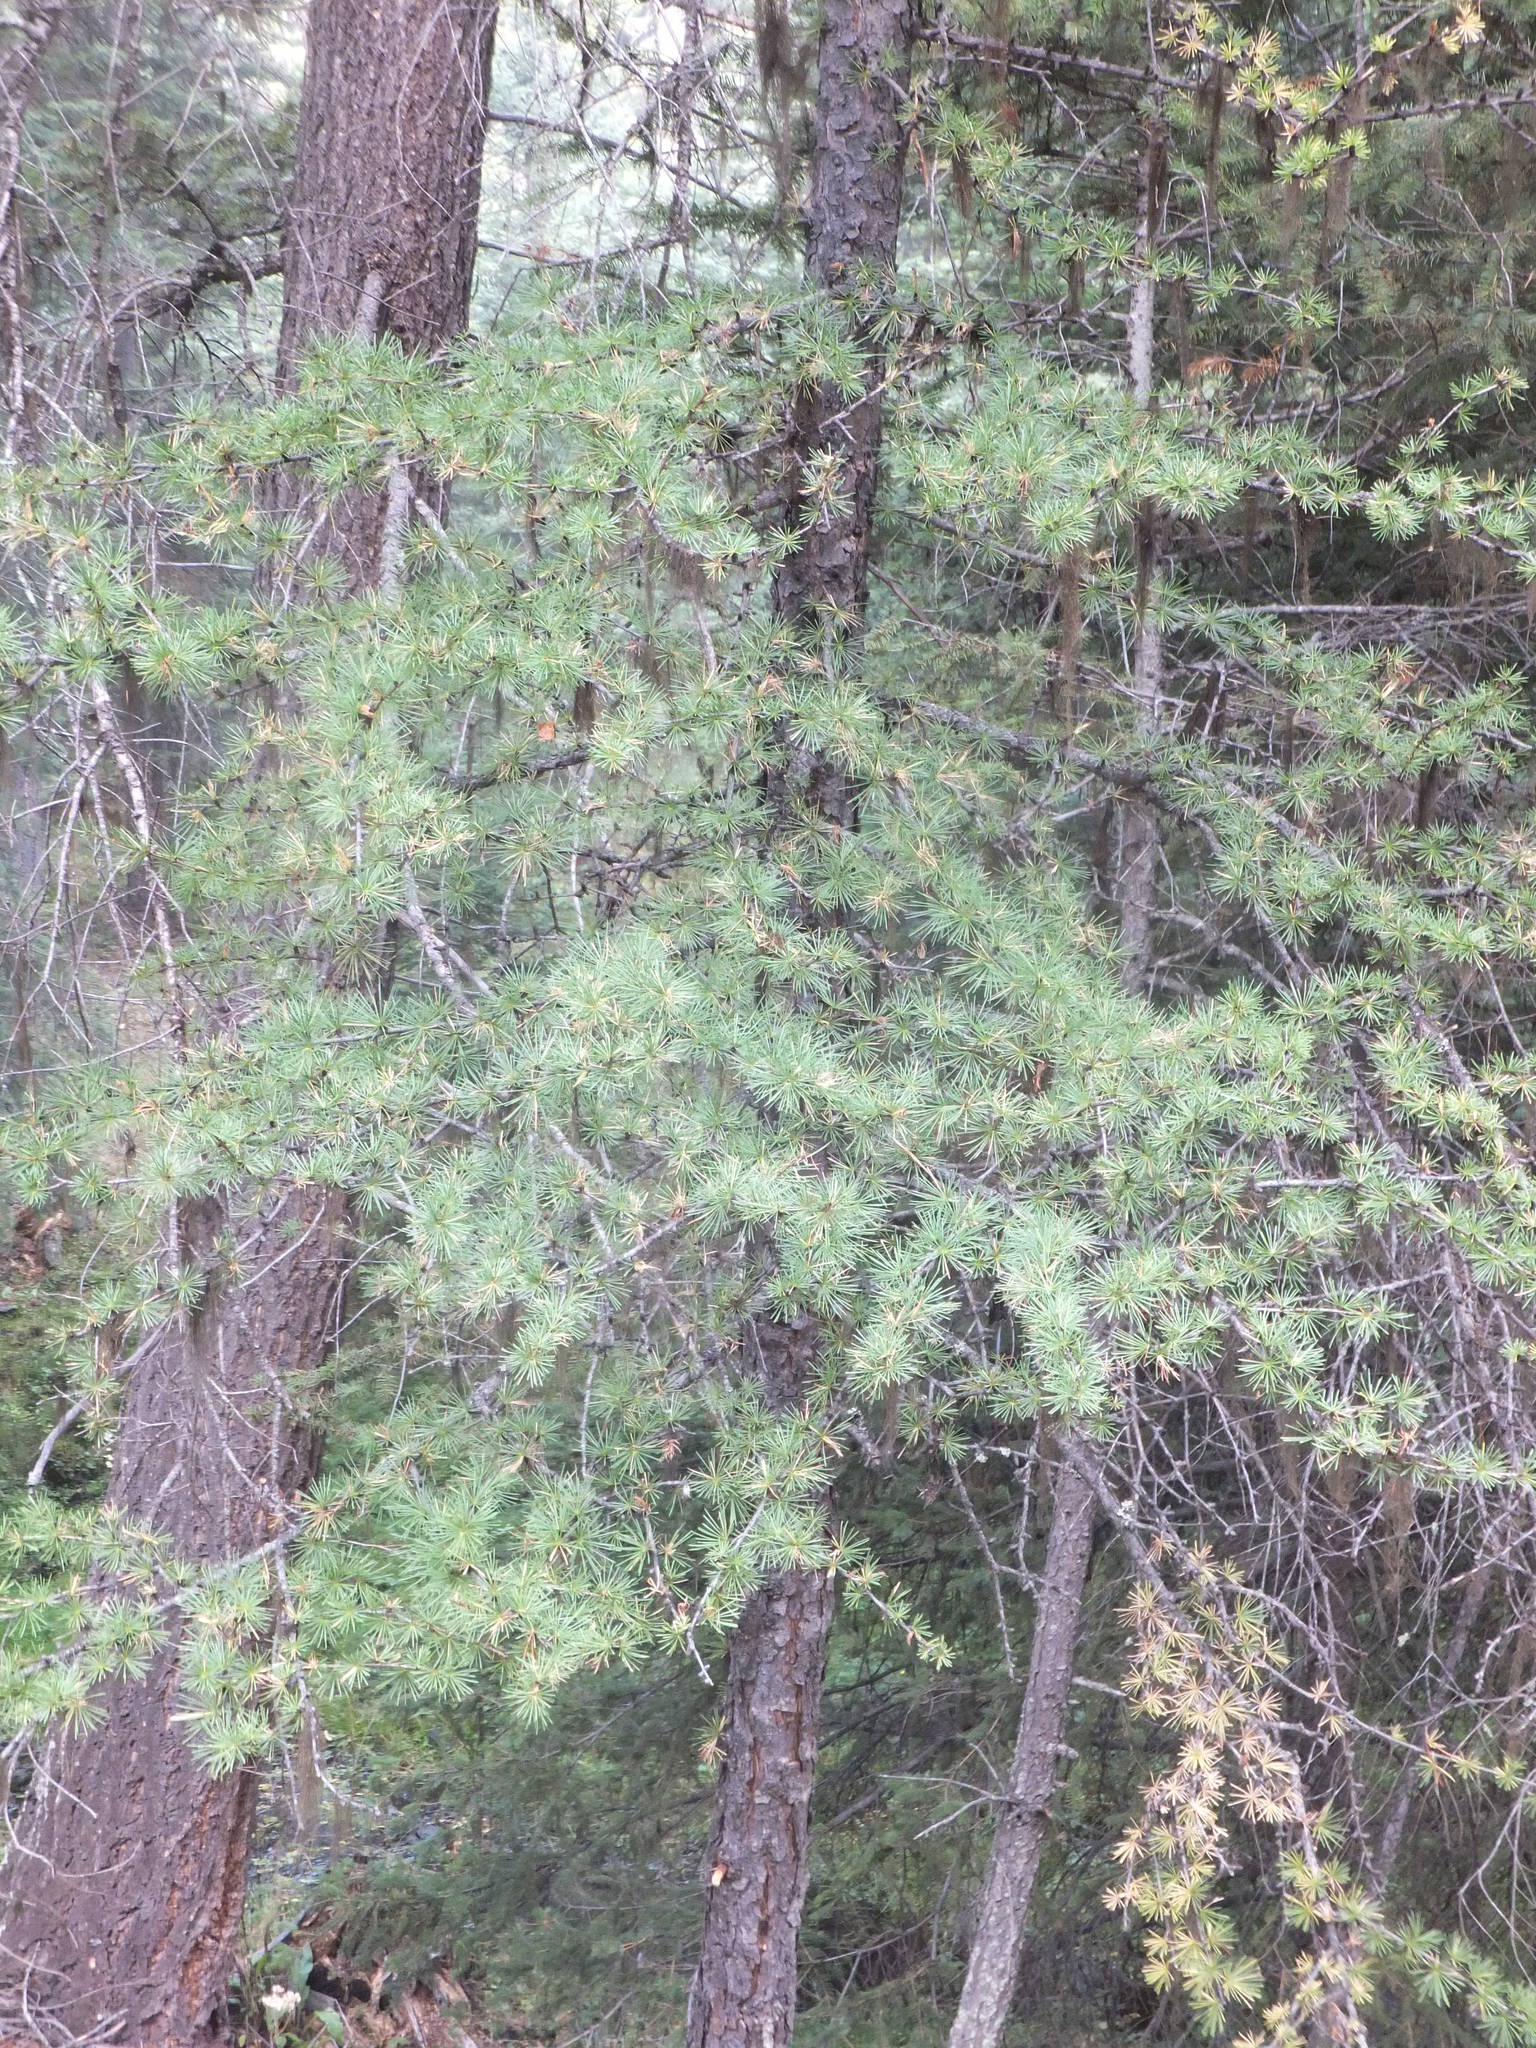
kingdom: Plantae
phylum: Tracheophyta
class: Pinopsida
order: Pinales
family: Pinaceae
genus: Larix
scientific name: Larix occidentalis
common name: Western larch
